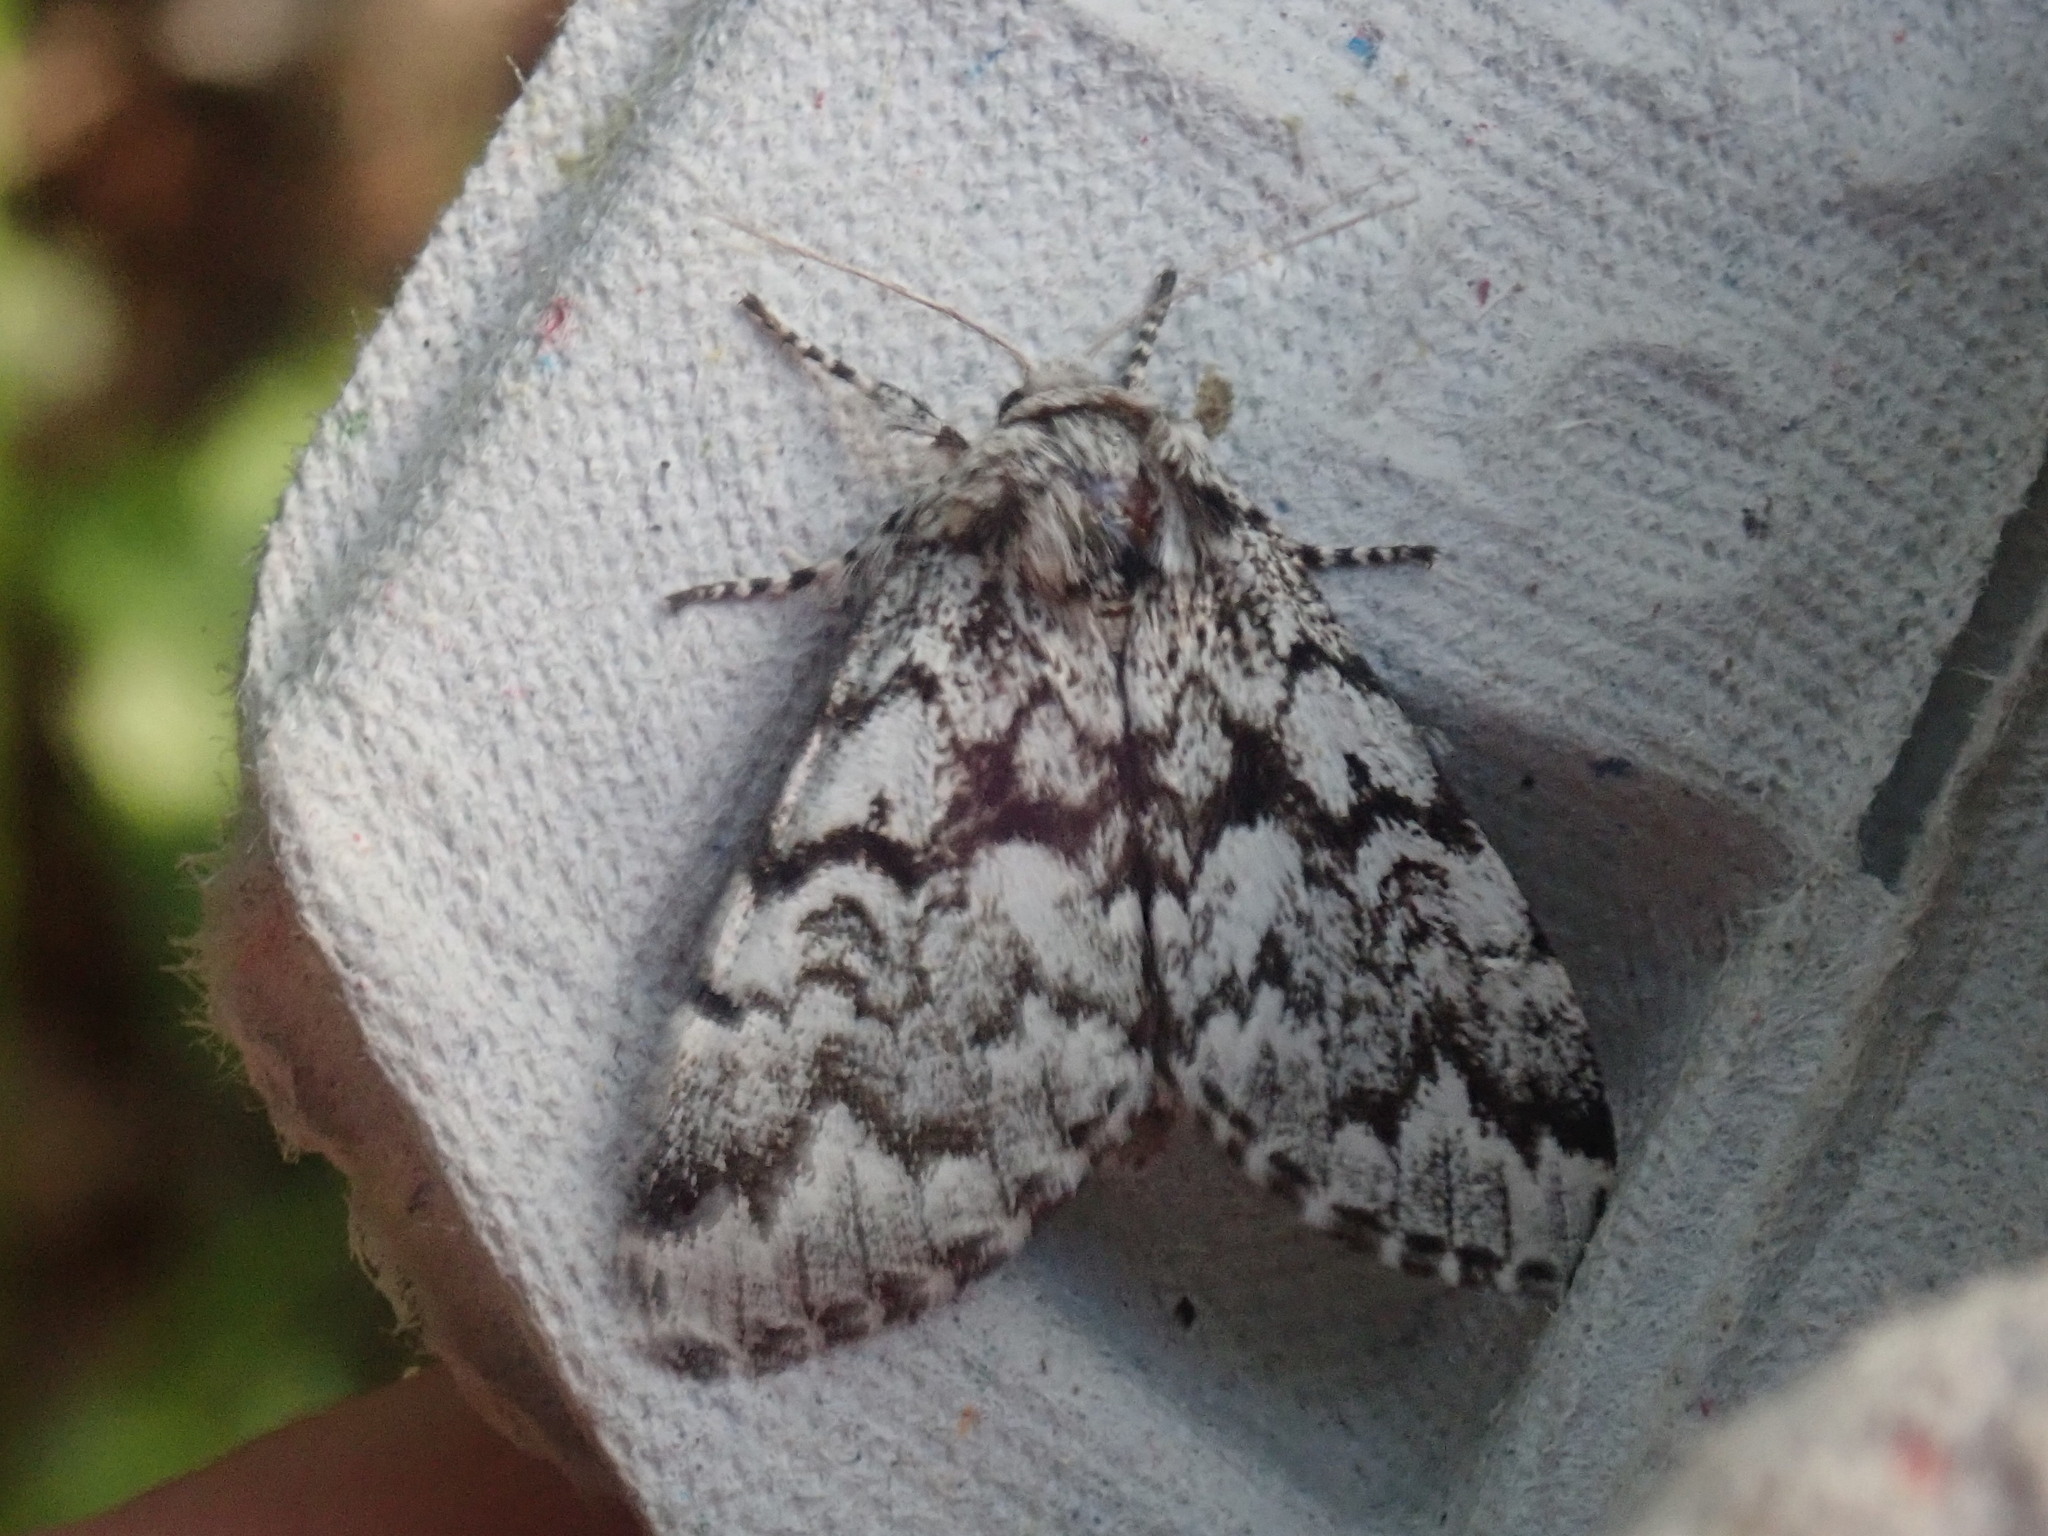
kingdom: Animalia
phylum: Arthropoda
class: Insecta
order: Lepidoptera
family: Noctuidae
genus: Panthea
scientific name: Panthea acronyctoides
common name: Black zigzag moth
